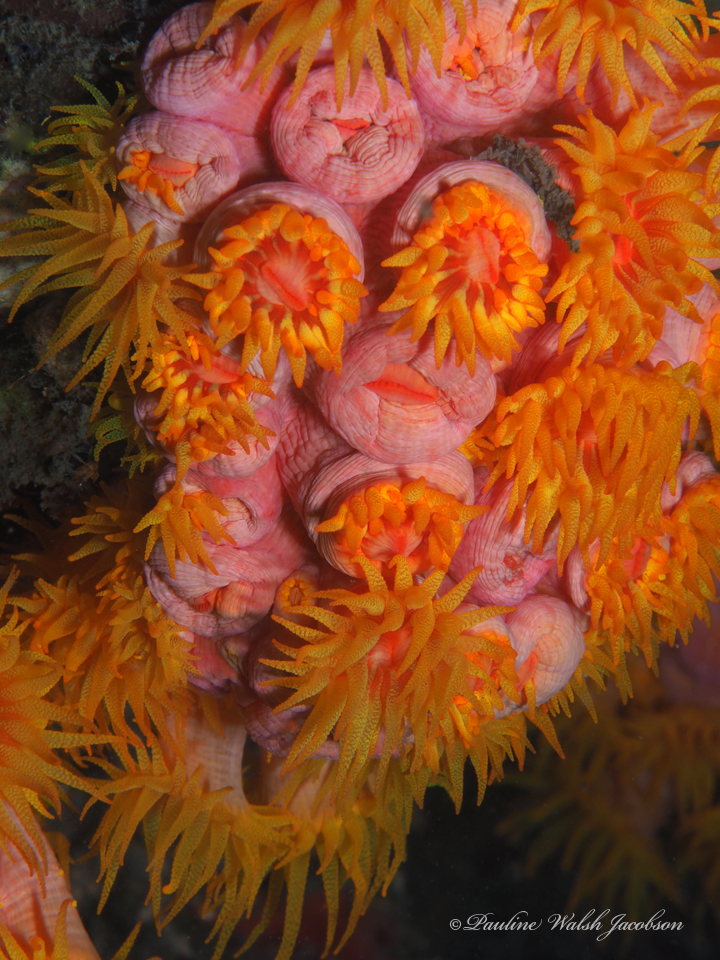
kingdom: Animalia
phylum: Cnidaria
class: Anthozoa
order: Scleractinia
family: Dendrophylliidae
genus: Tubastraea
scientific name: Tubastraea coccinea
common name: Orange cup coral
